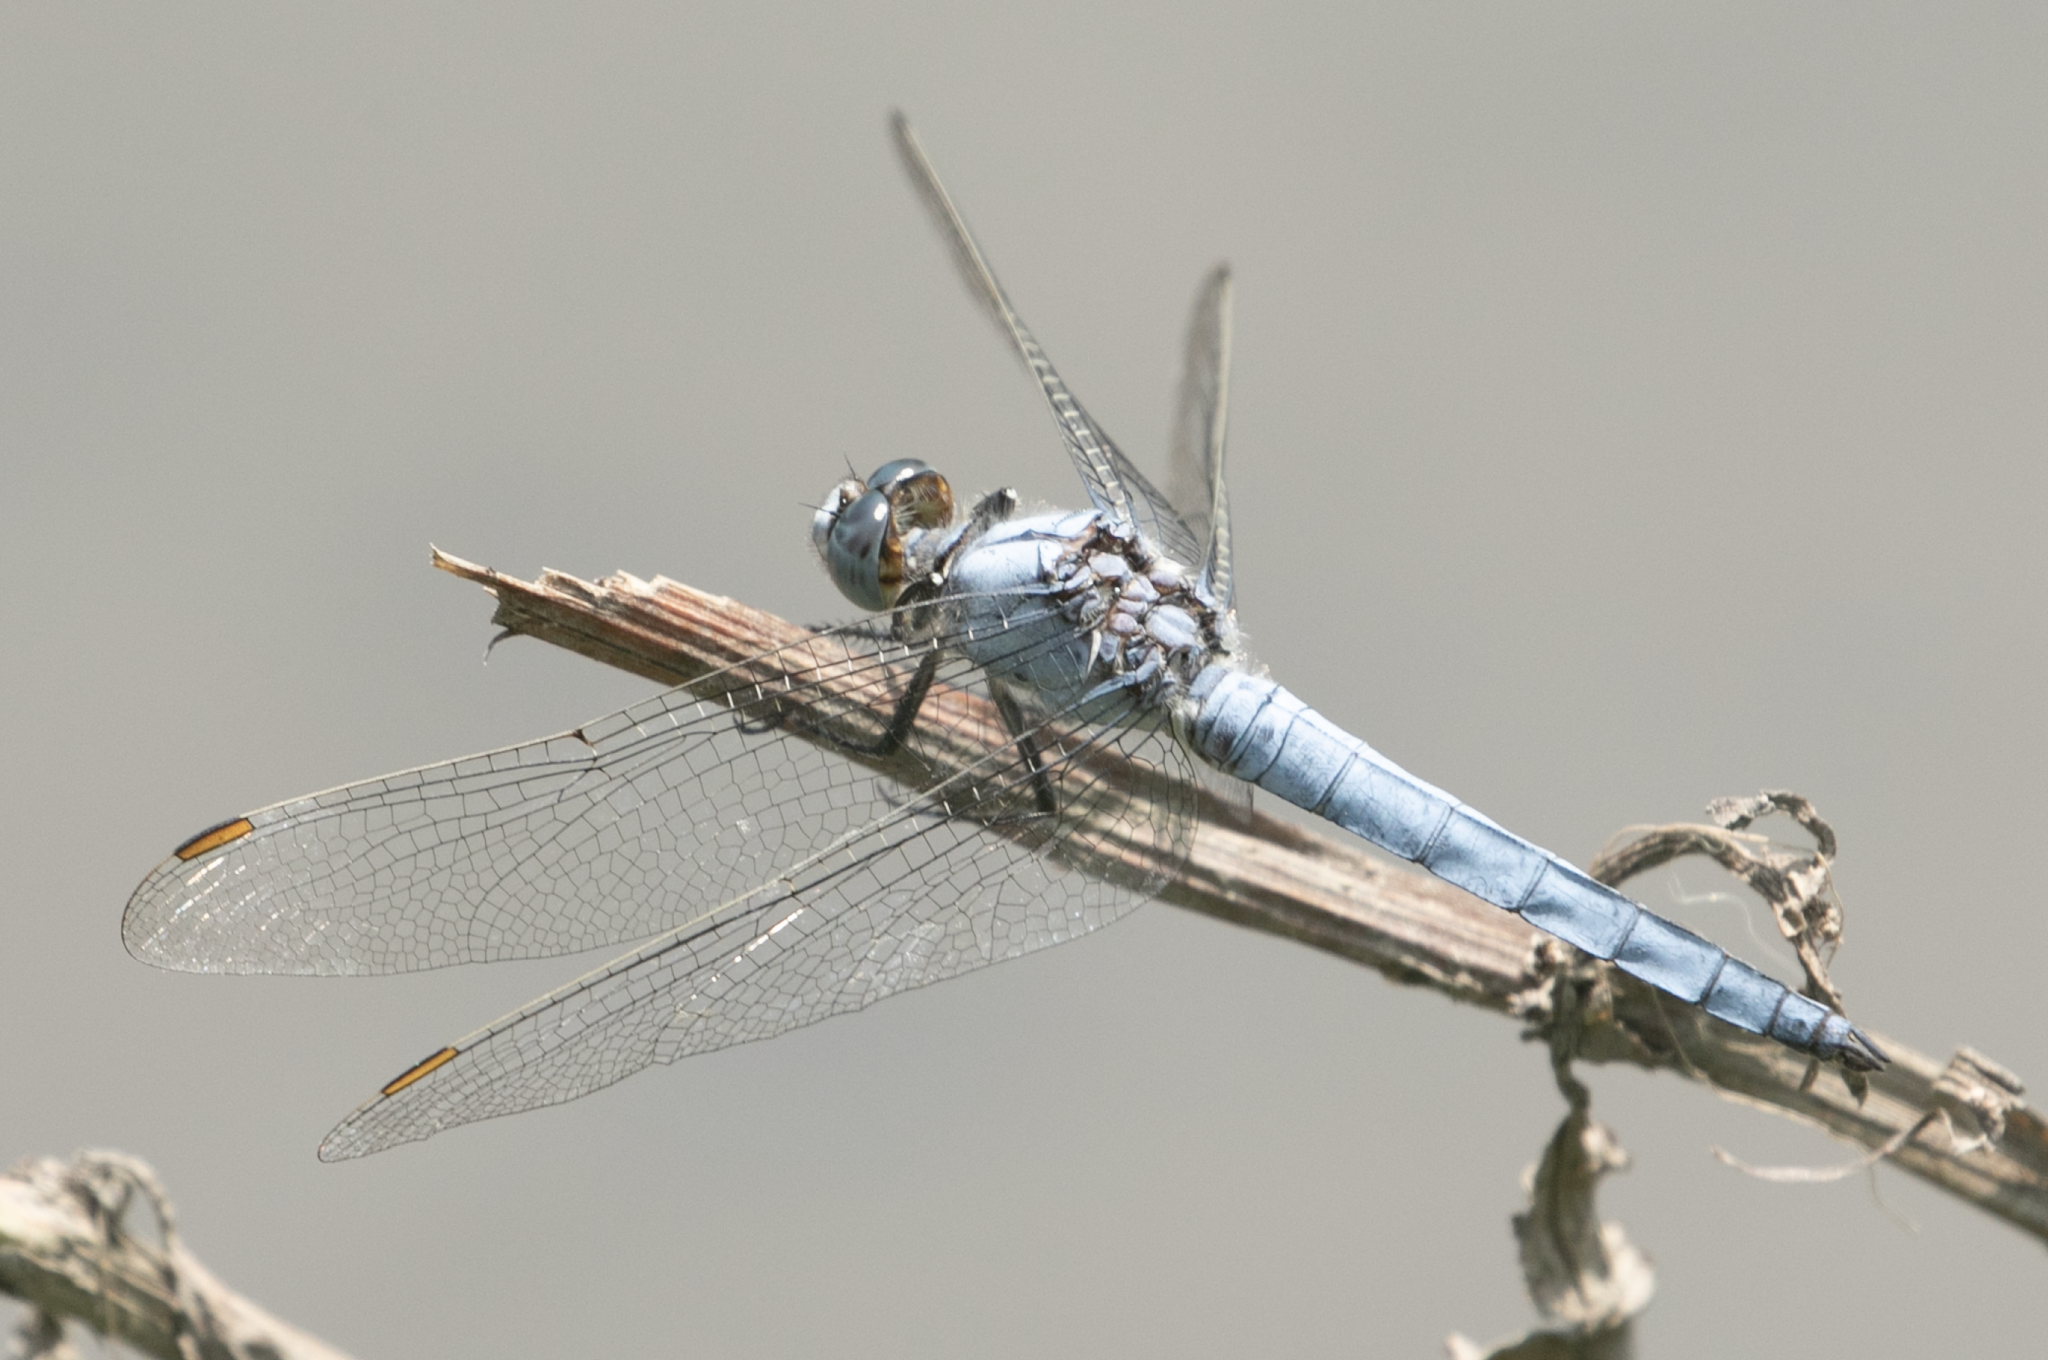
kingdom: Animalia
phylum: Arthropoda
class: Insecta
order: Odonata
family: Libellulidae
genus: Orthetrum
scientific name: Orthetrum brunneum
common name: Southern skimmer
